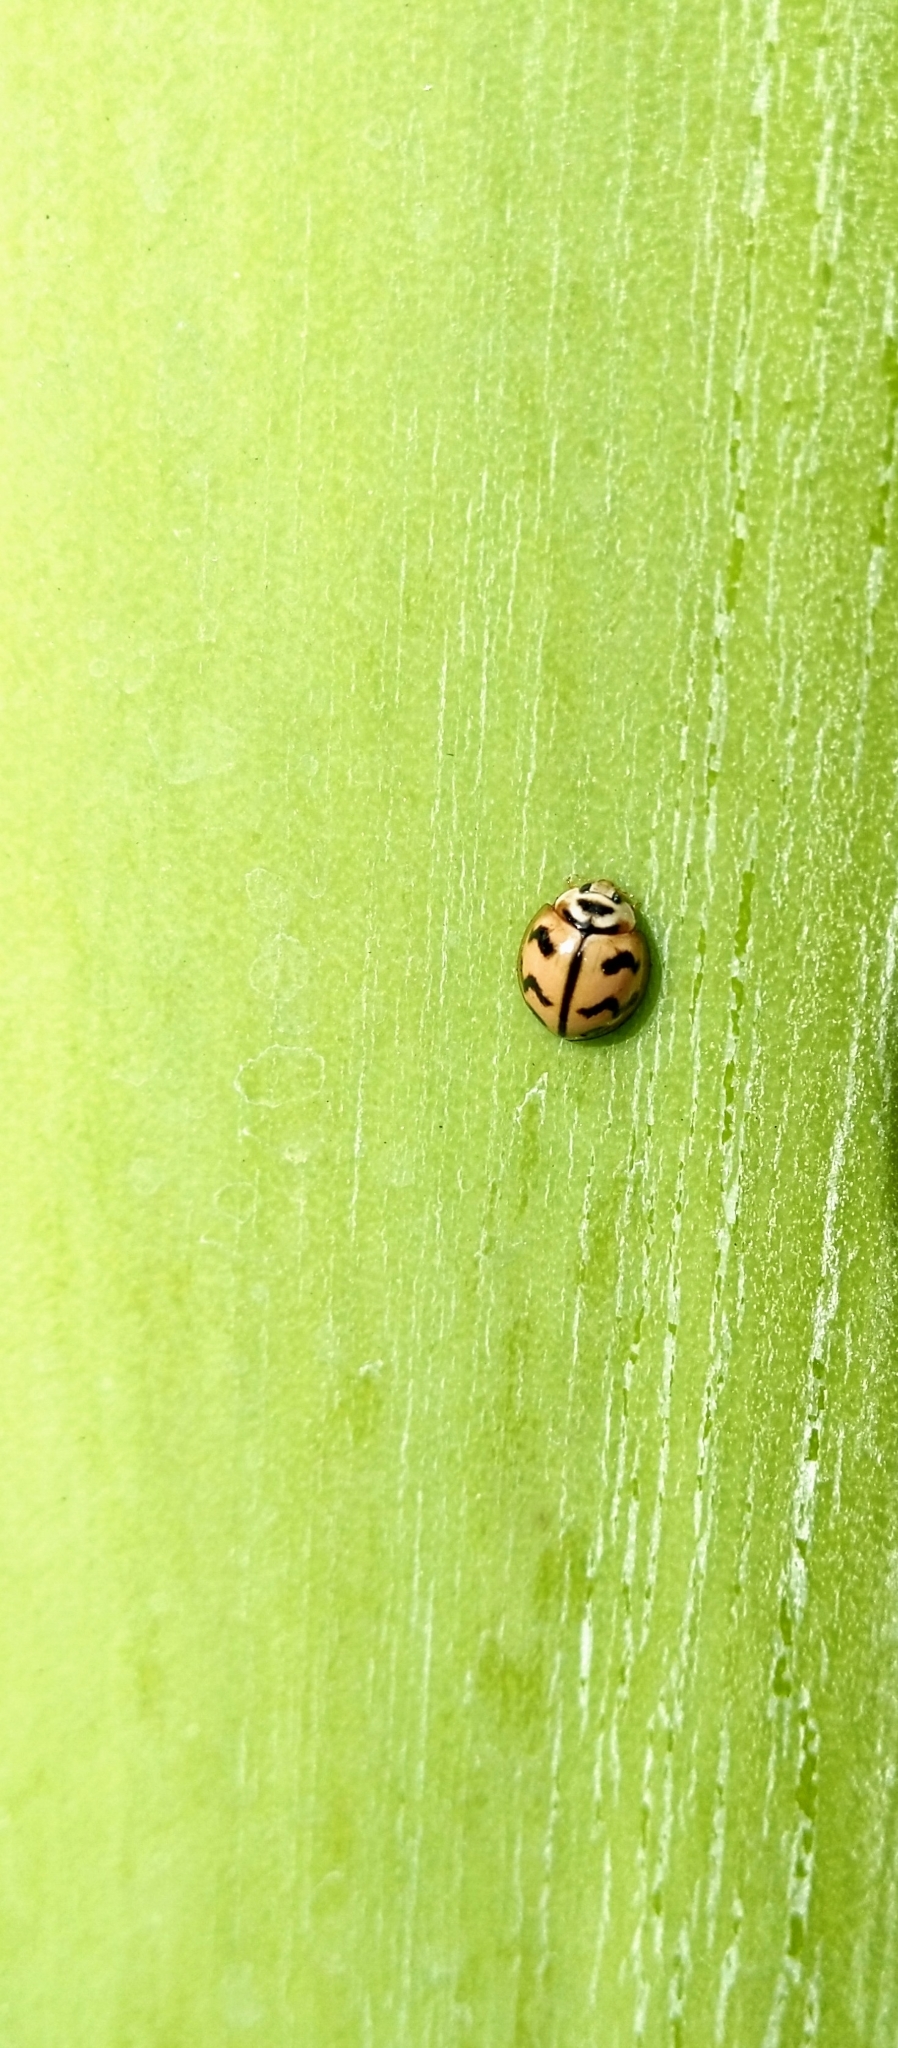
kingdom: Animalia
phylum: Arthropoda
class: Insecta
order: Coleoptera
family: Coccinellidae
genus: Cheilomenes
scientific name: Cheilomenes sexmaculata
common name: Ladybird beetle
